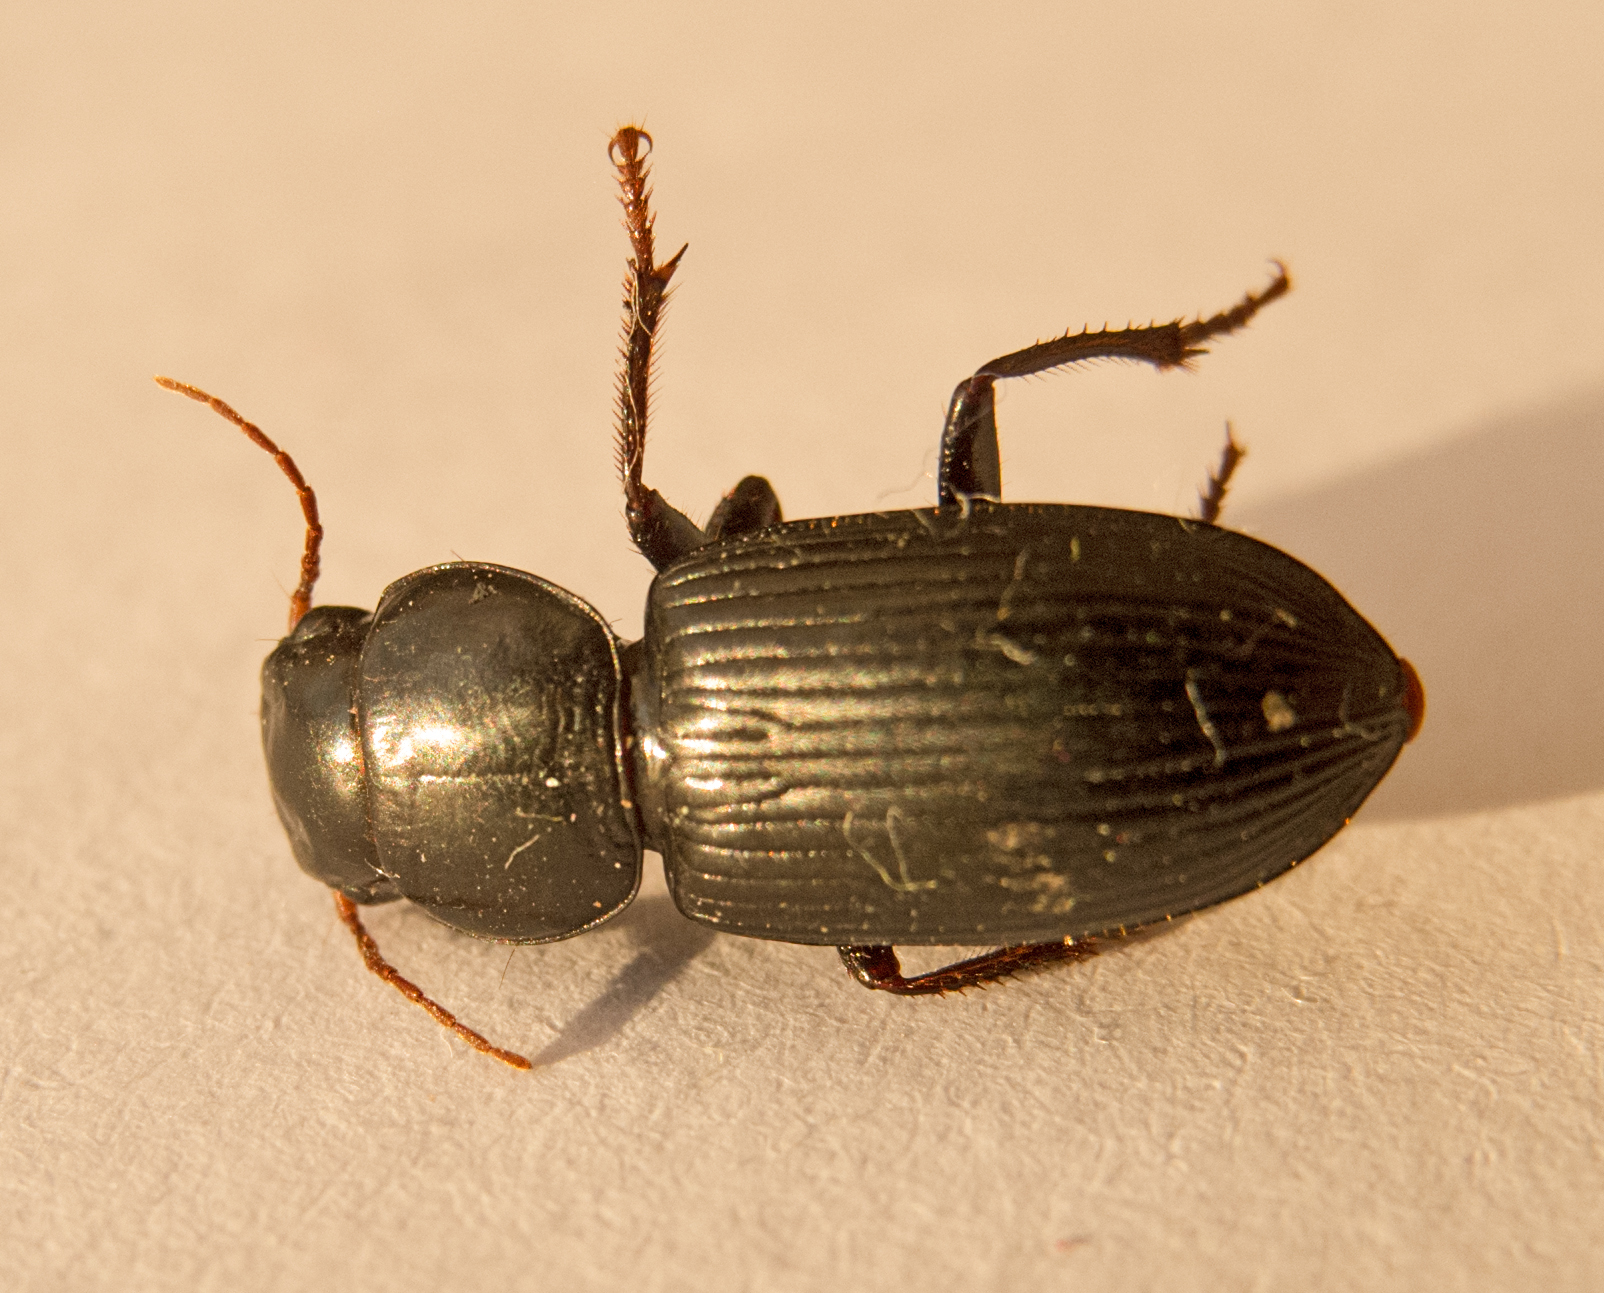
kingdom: Animalia
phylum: Arthropoda
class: Insecta
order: Coleoptera
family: Carabidae
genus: Acinopus
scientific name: Acinopus megacephalus
